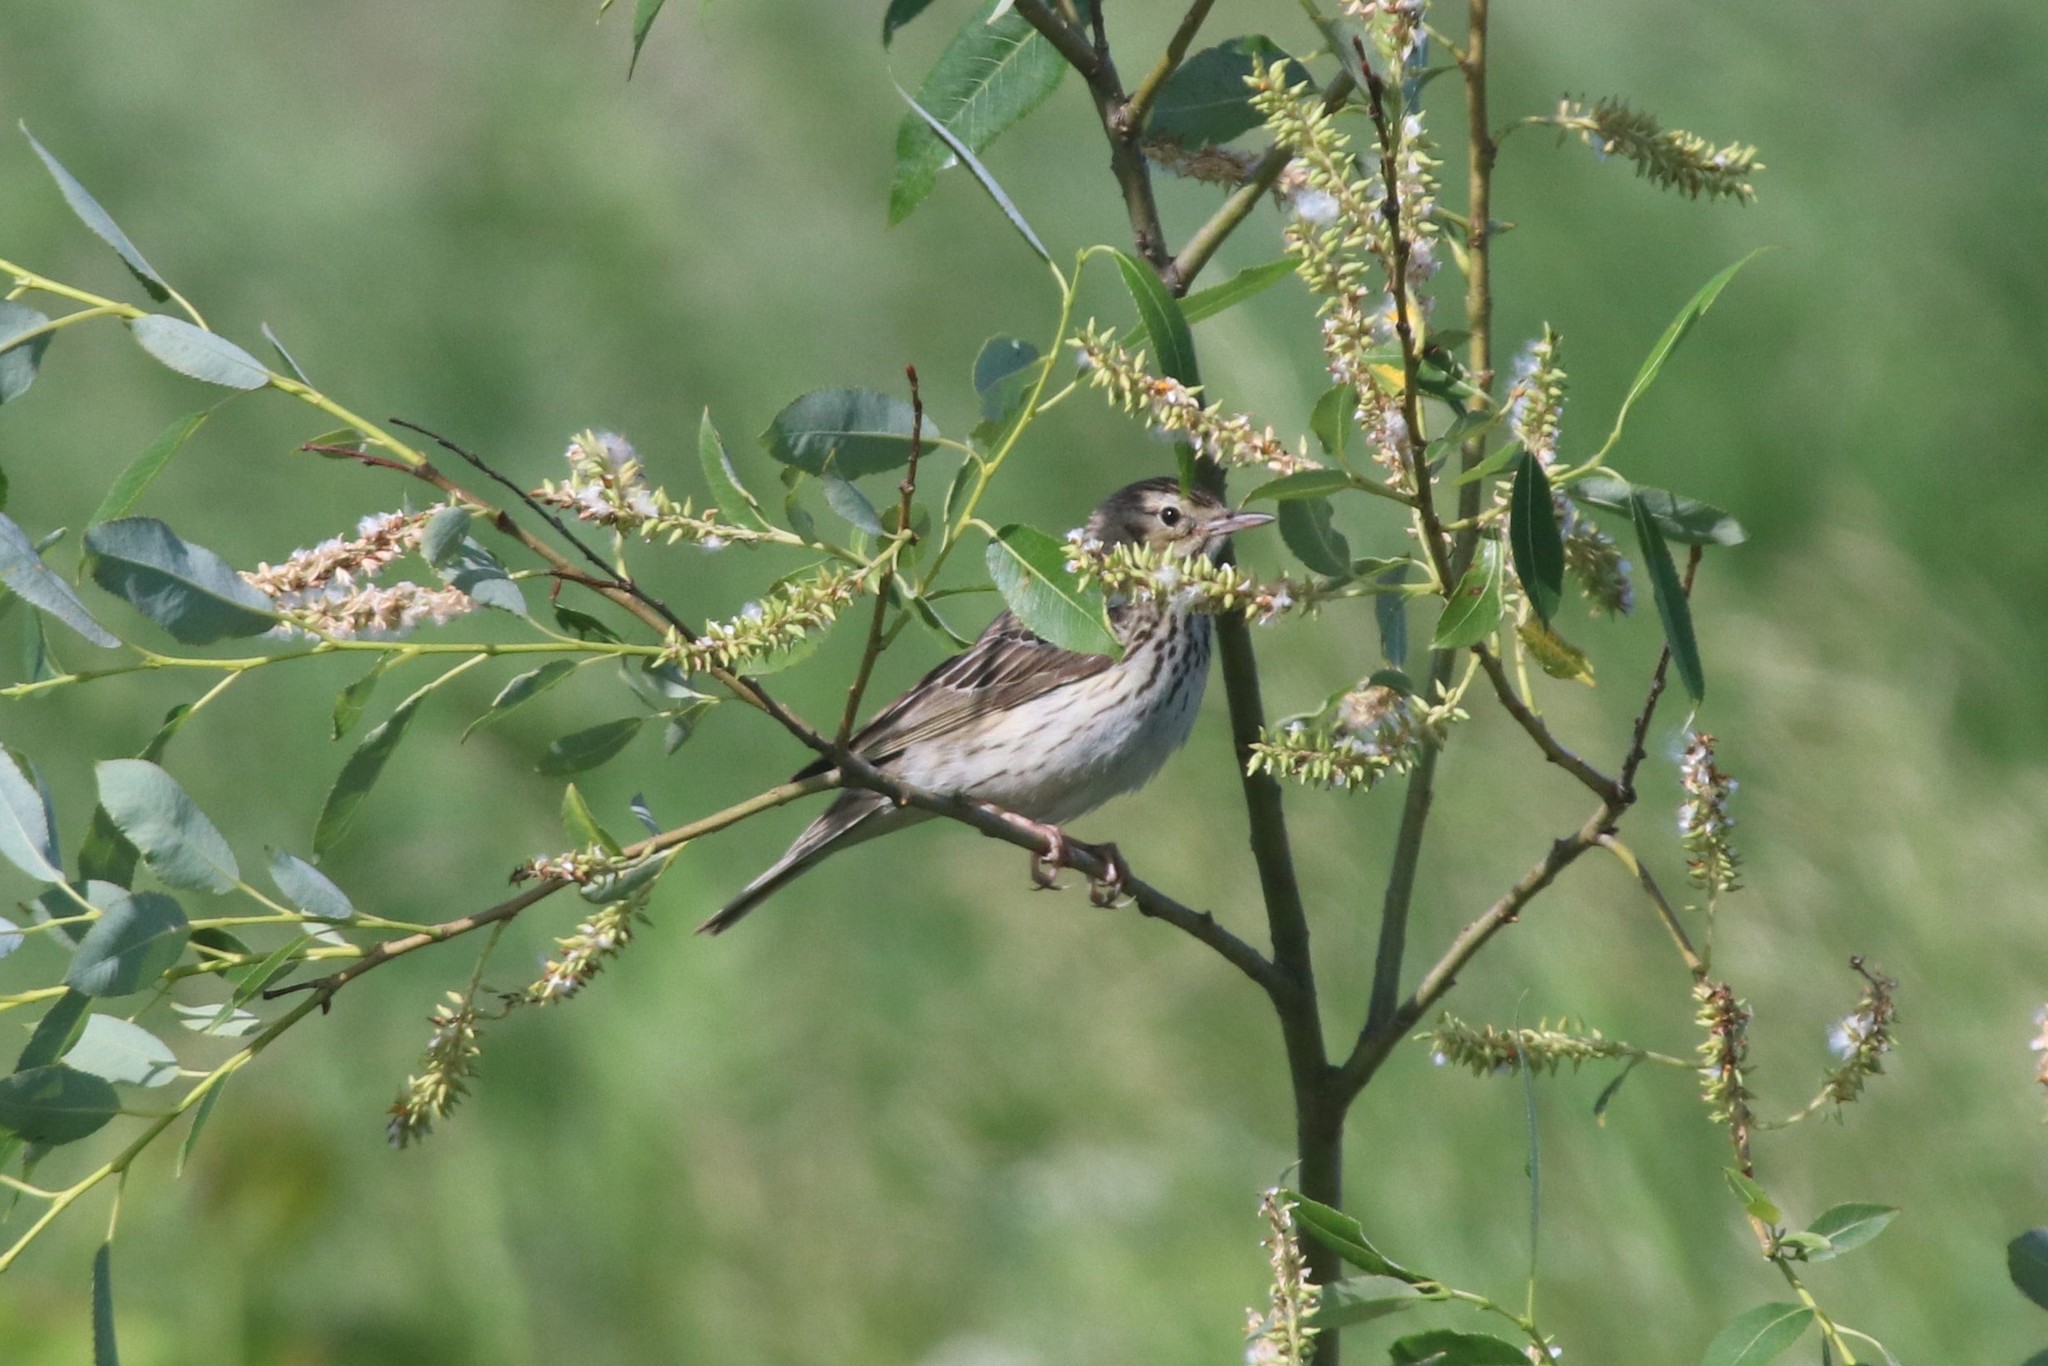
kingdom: Animalia
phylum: Chordata
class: Aves
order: Passeriformes
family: Motacillidae
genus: Anthus
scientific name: Anthus trivialis
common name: Tree pipit
